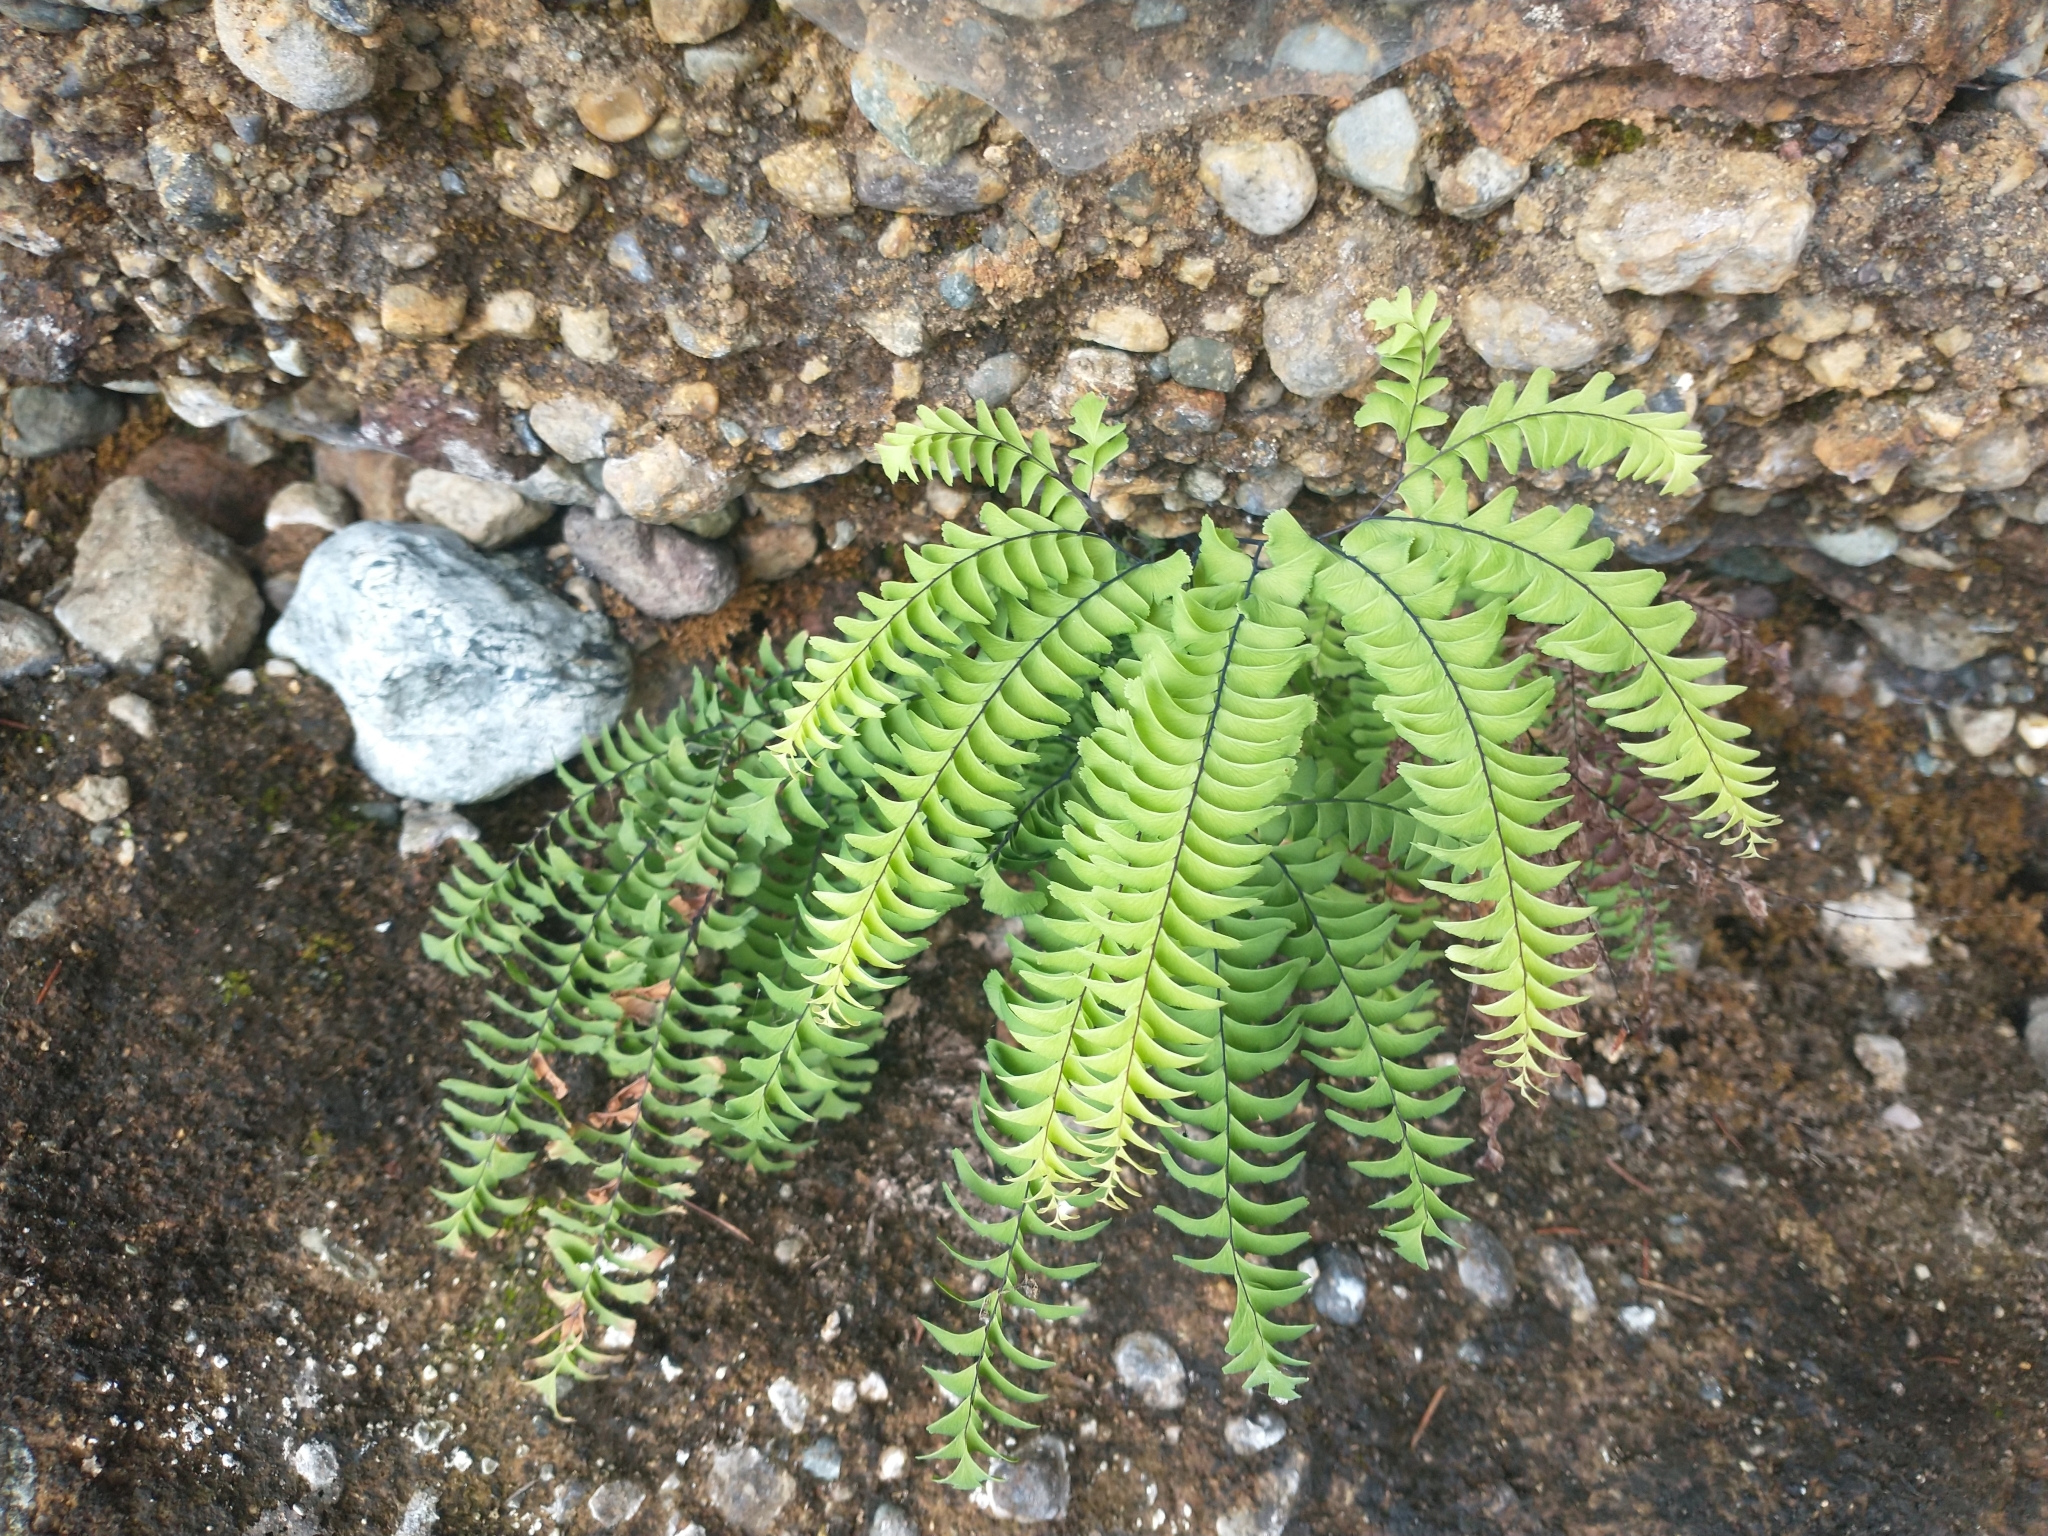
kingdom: Plantae
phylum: Tracheophyta
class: Polypodiopsida
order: Polypodiales
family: Pteridaceae
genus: Adiantum
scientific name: Adiantum aleuticum
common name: Aleutian maidenhair fern
